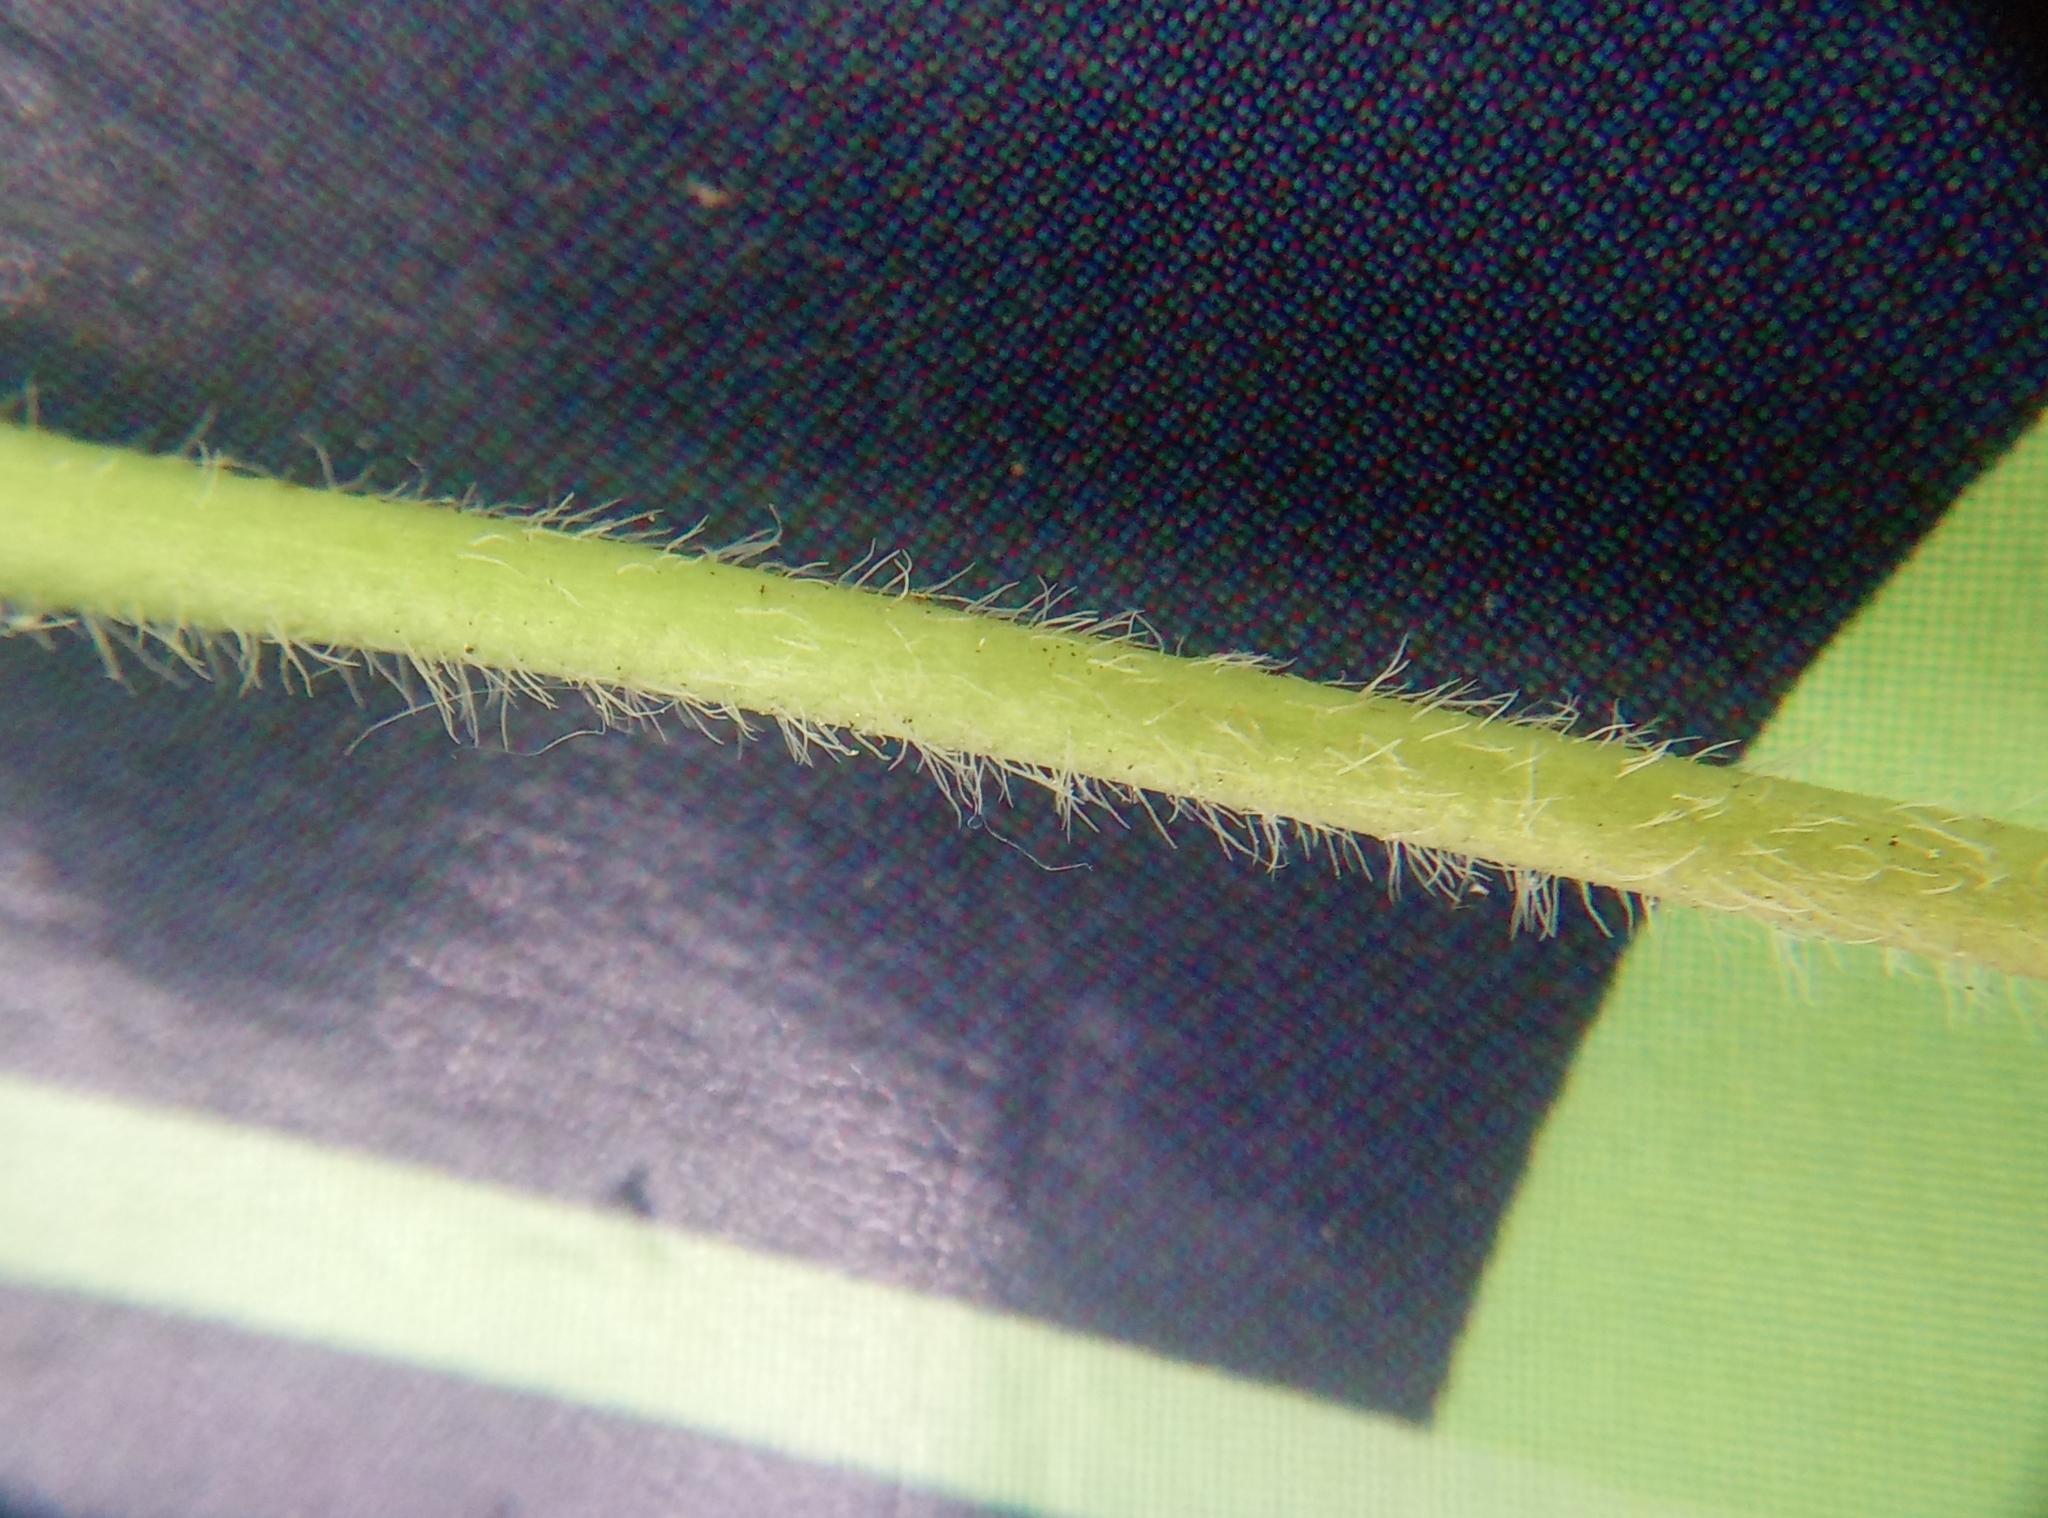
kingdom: Plantae
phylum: Tracheophyta
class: Magnoliopsida
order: Lamiales
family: Plantaginaceae
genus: Veronica
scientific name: Veronica officinalis
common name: Common speedwell
